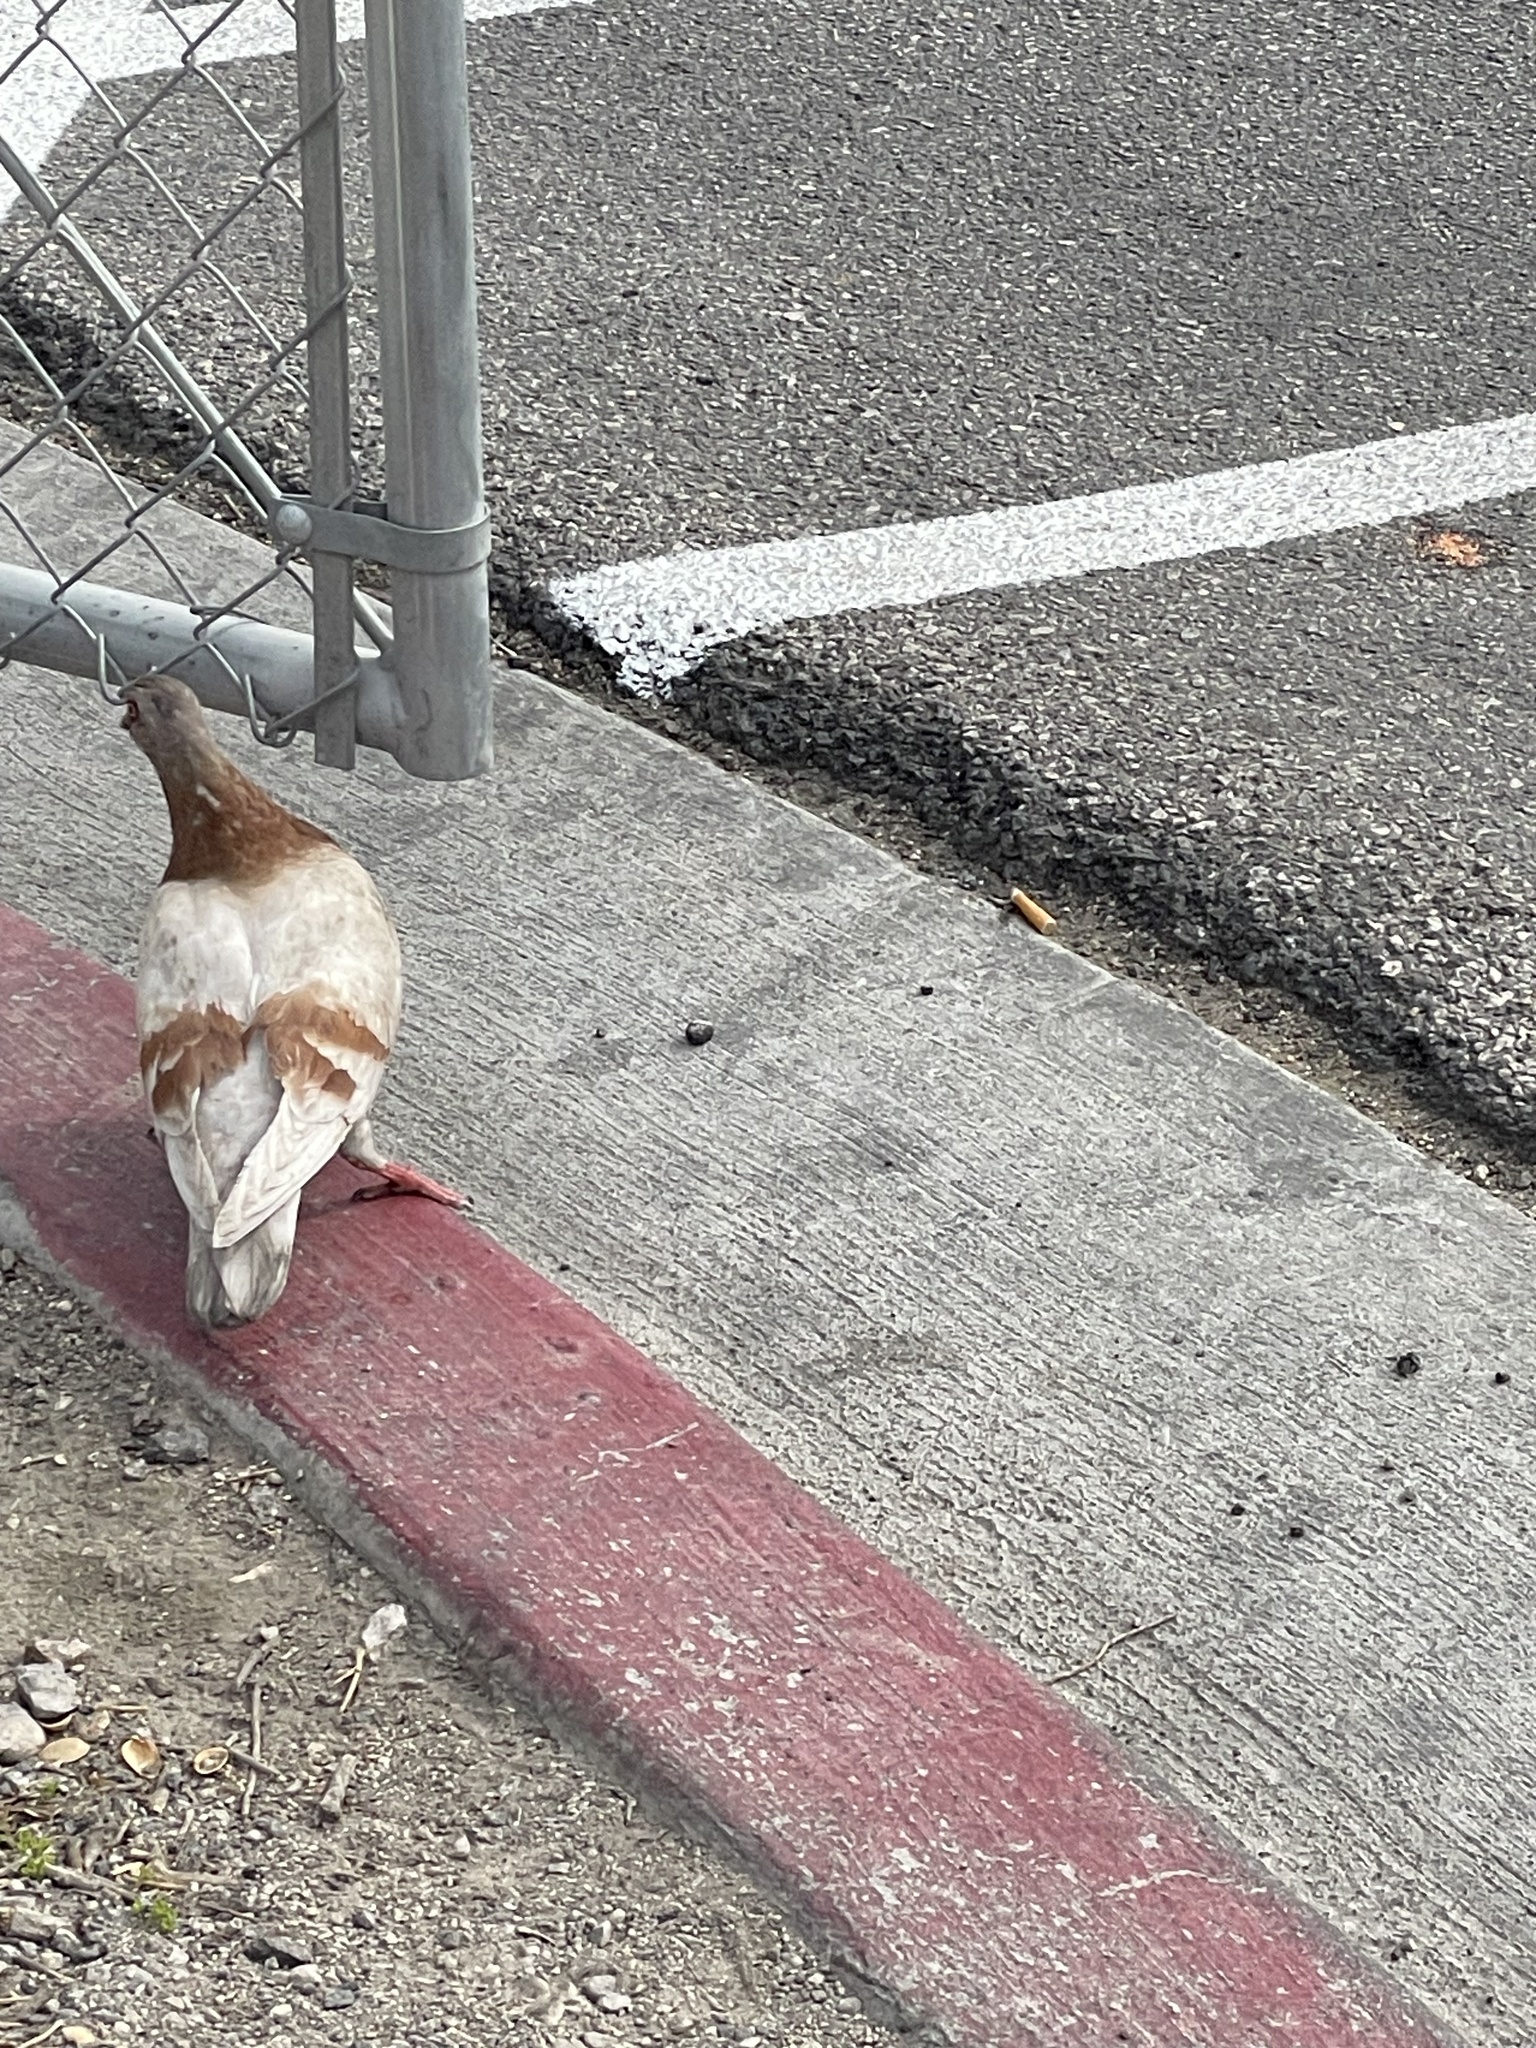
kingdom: Animalia
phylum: Chordata
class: Aves
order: Columbiformes
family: Columbidae
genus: Columba
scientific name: Columba livia
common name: Rock pigeon
